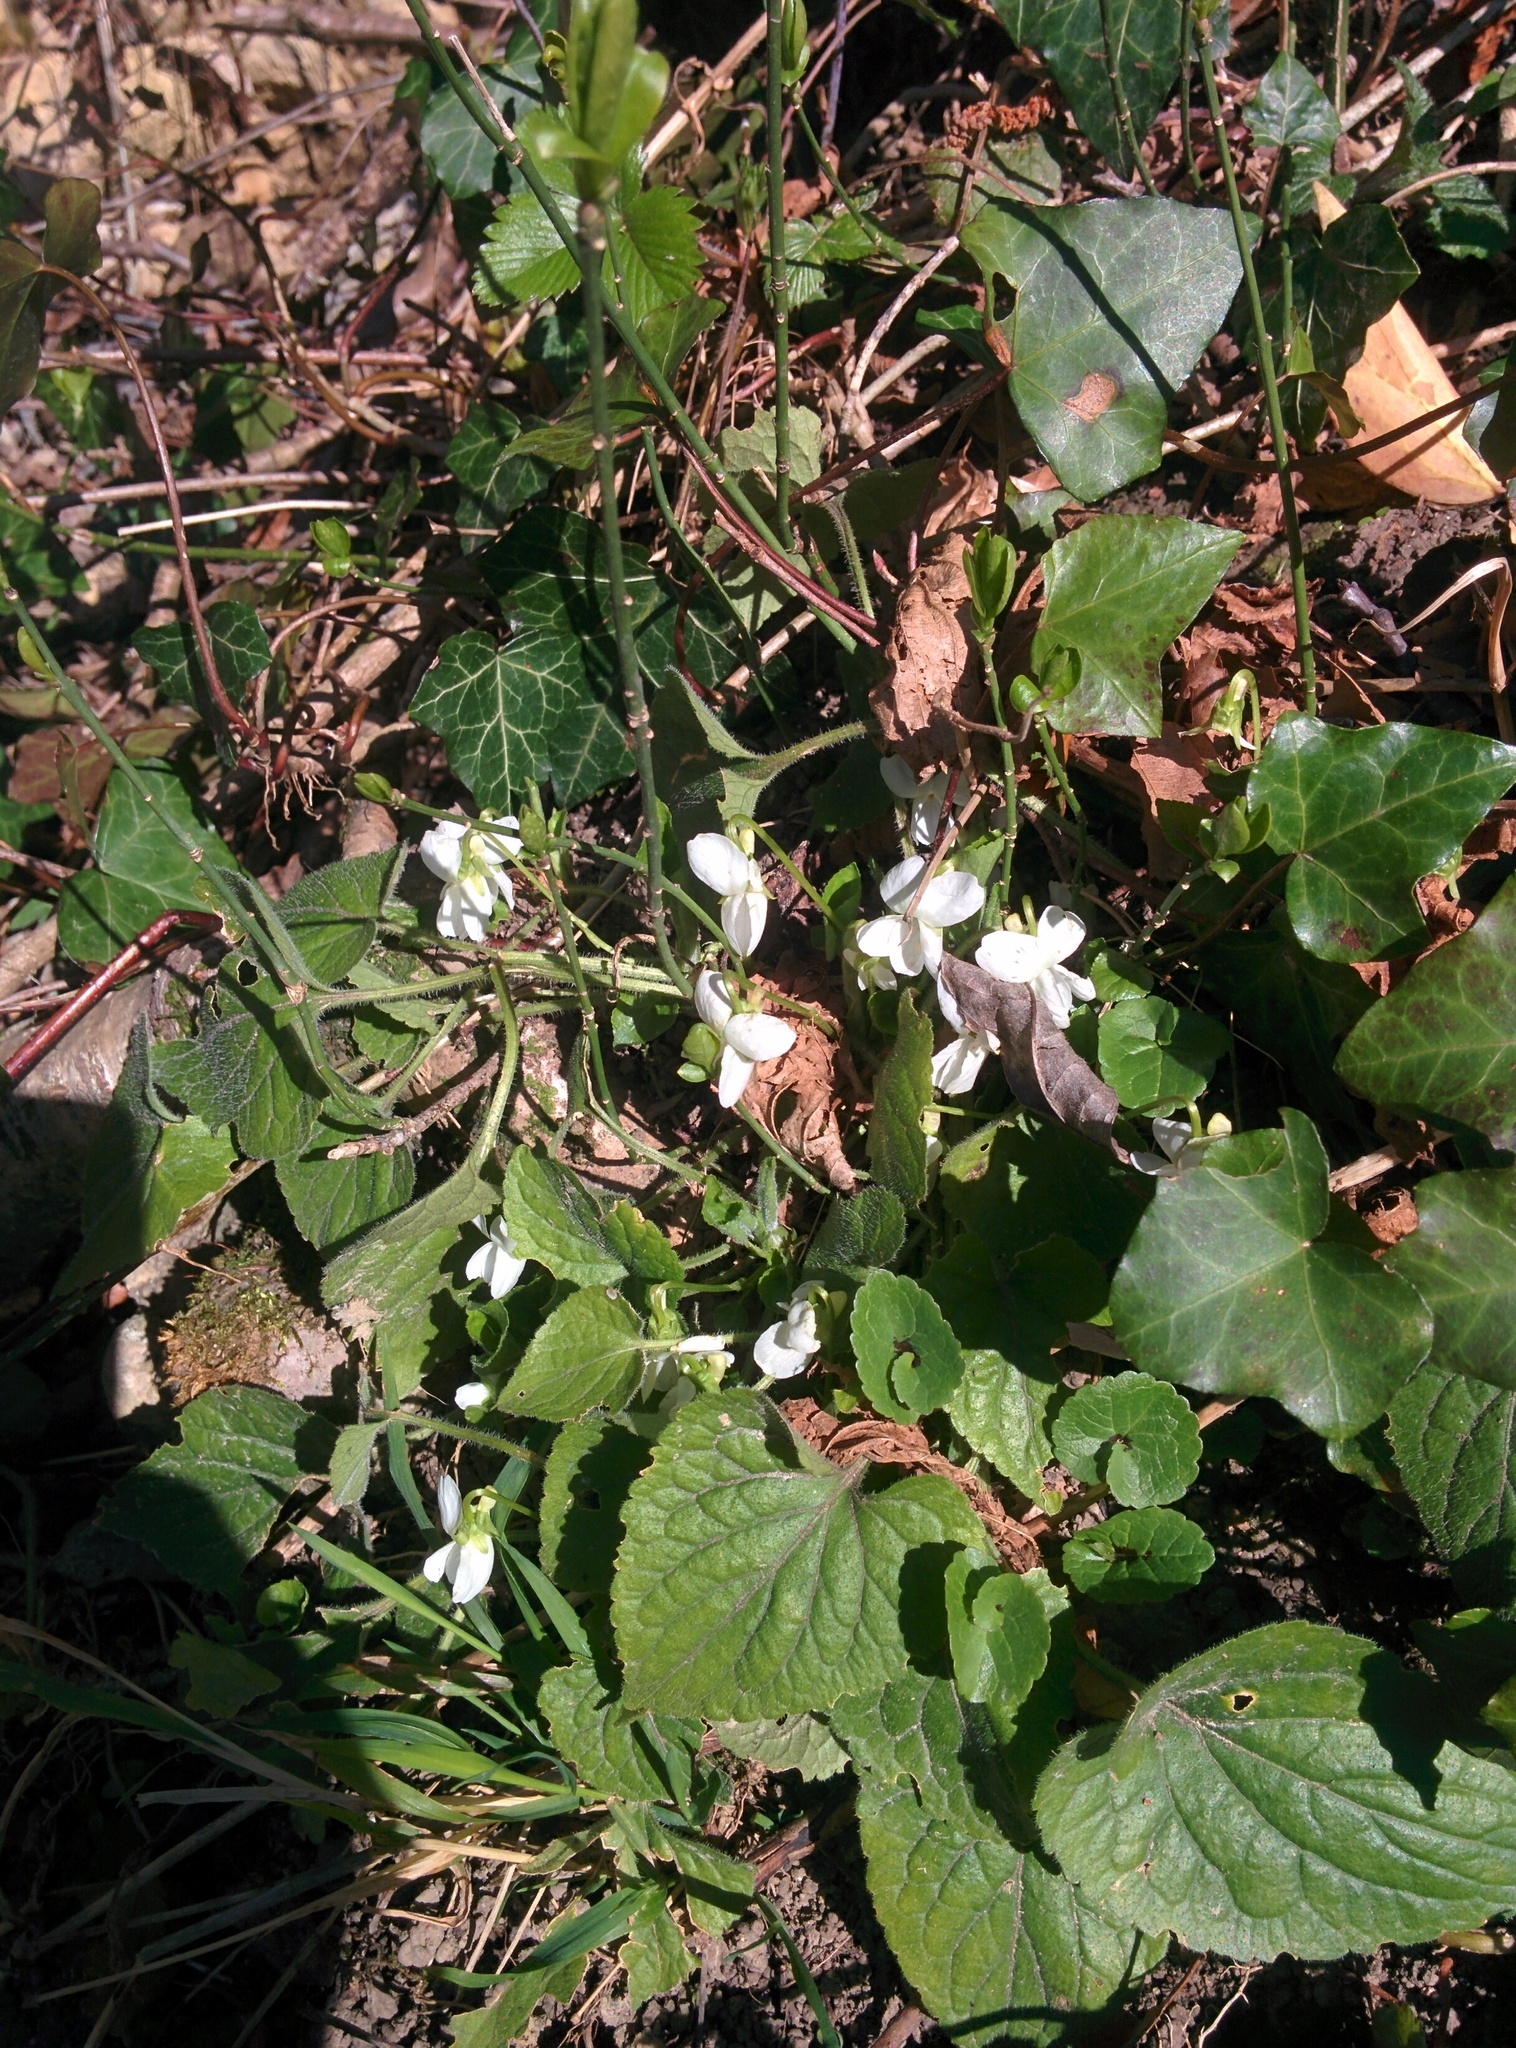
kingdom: Plantae
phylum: Tracheophyta
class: Magnoliopsida
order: Malpighiales
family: Violaceae
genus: Viola
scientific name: Viola alba
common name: White violet
